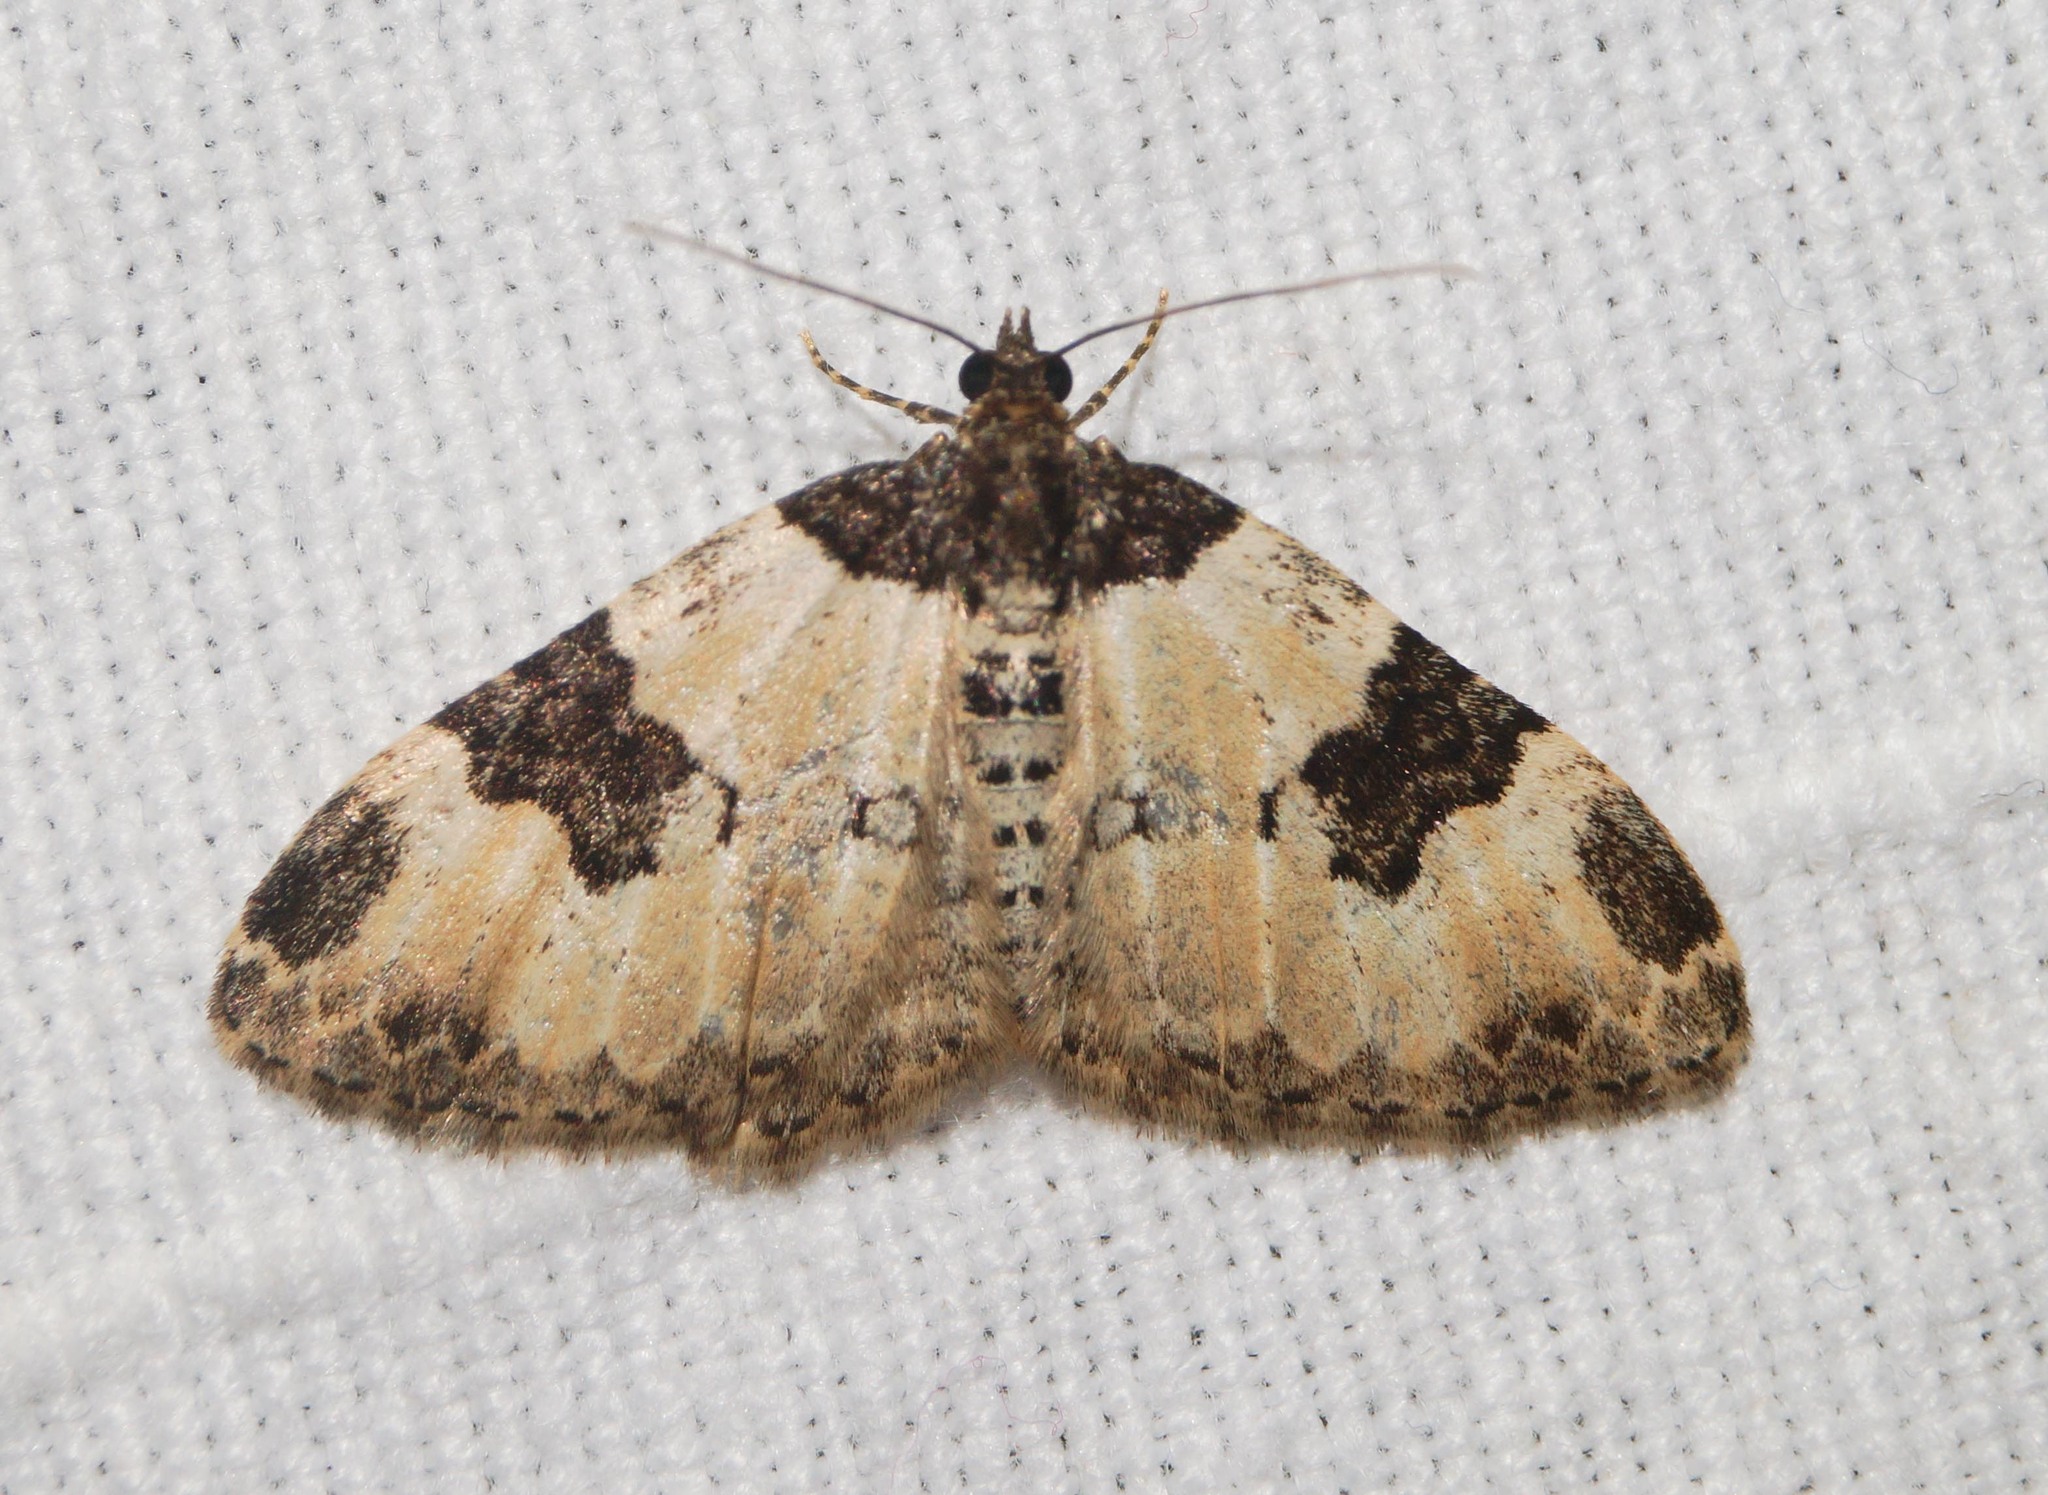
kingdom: Animalia
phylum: Arthropoda
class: Insecta
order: Lepidoptera
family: Geometridae
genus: Xanthorhoe
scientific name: Xanthorhoe fluctuata
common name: Garden carpet
